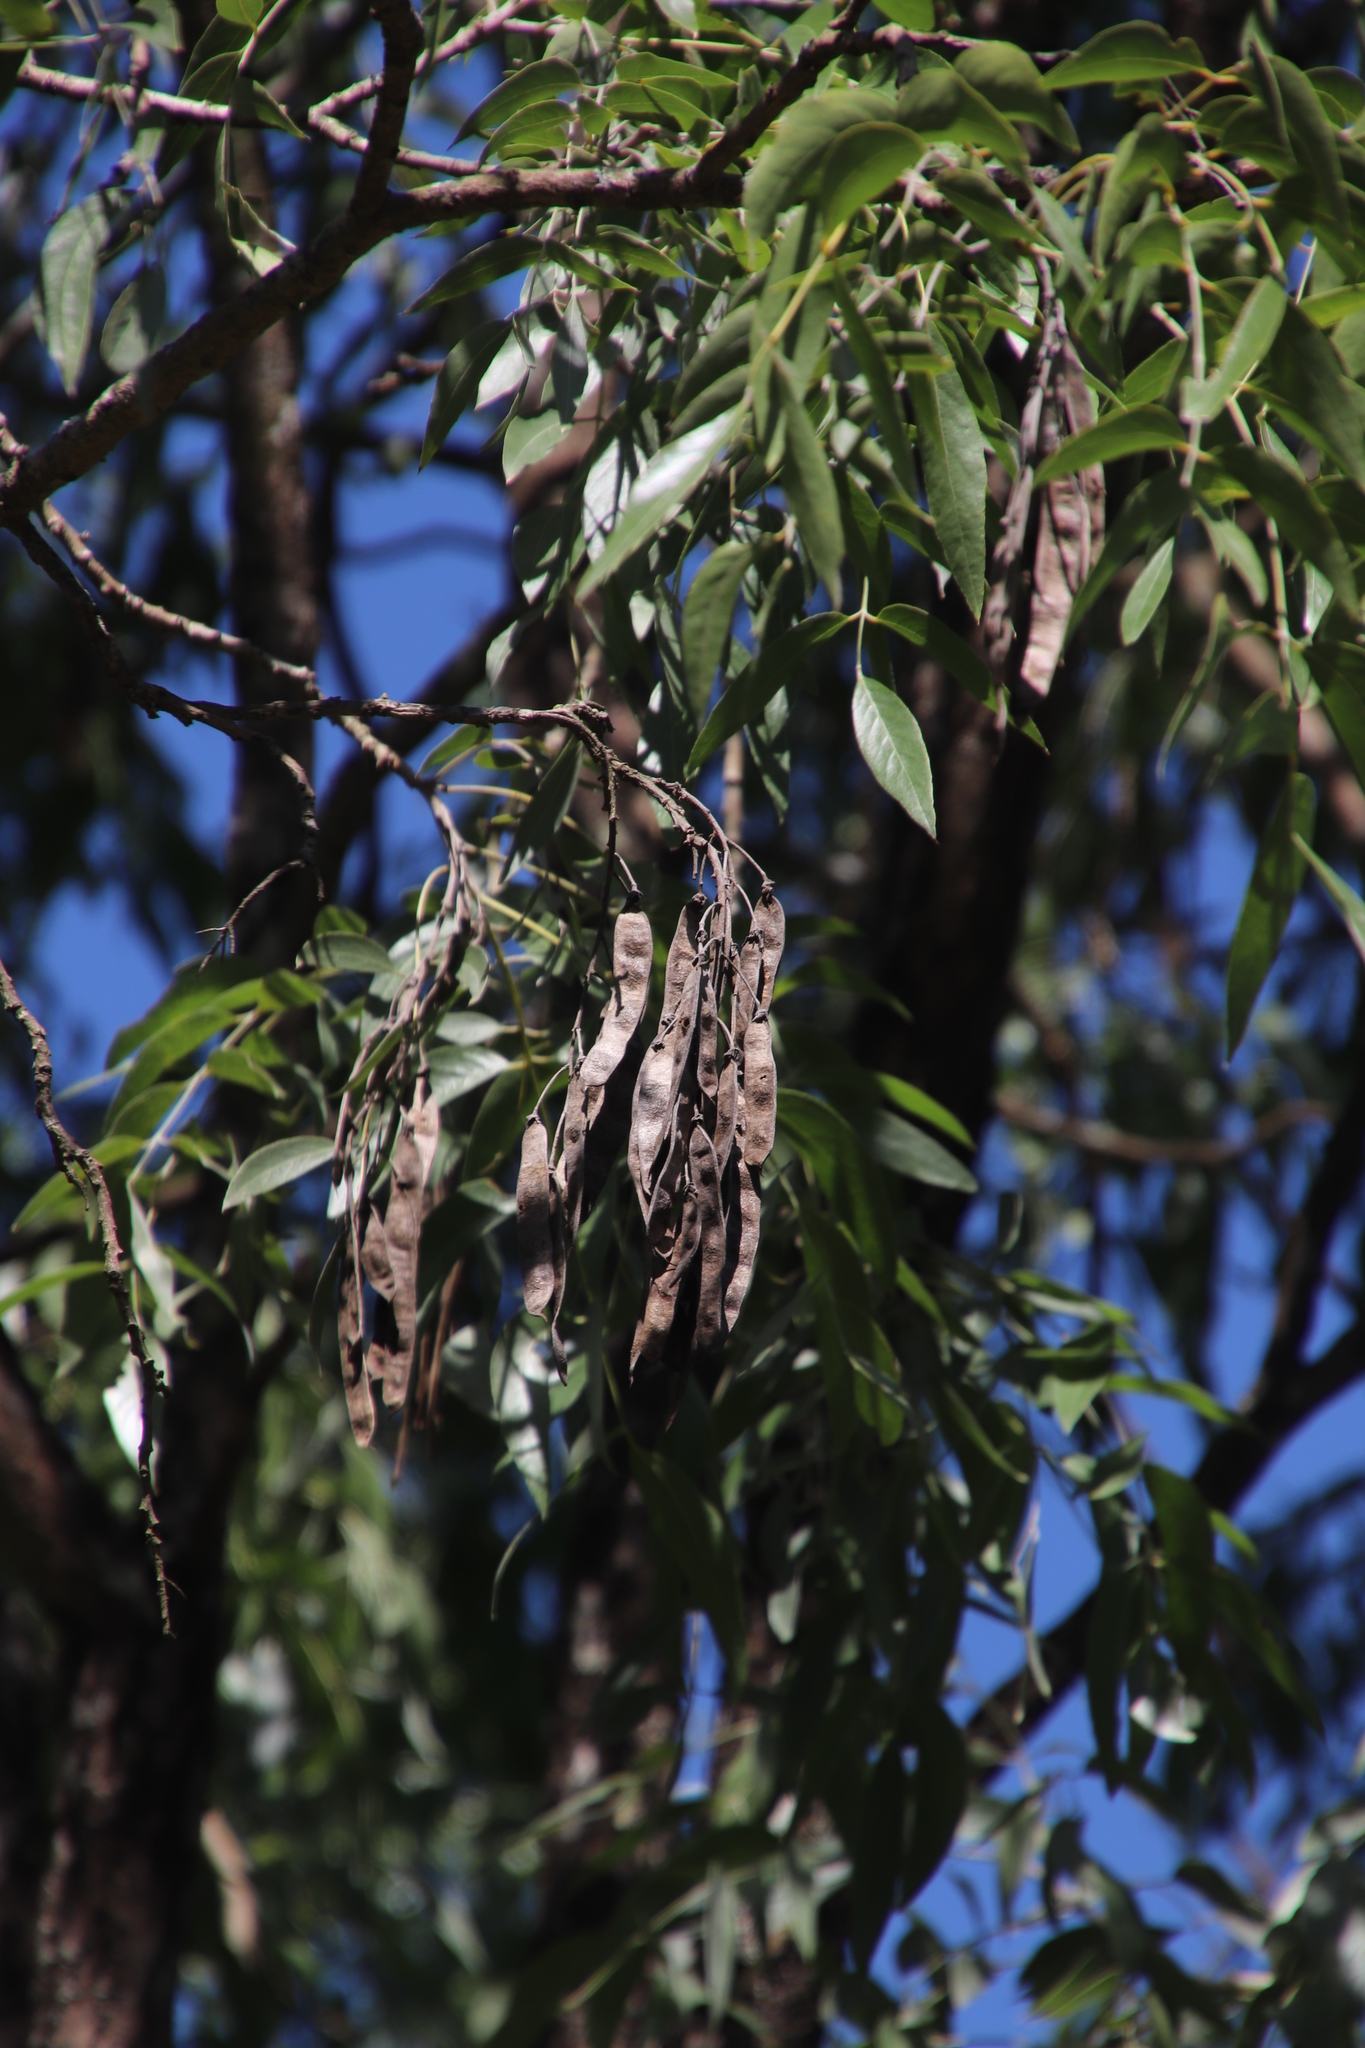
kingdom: Plantae
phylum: Tracheophyta
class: Magnoliopsida
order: Fabales
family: Fabaceae
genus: Bolusanthus
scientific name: Bolusanthus speciosus
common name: Tree wisteria
